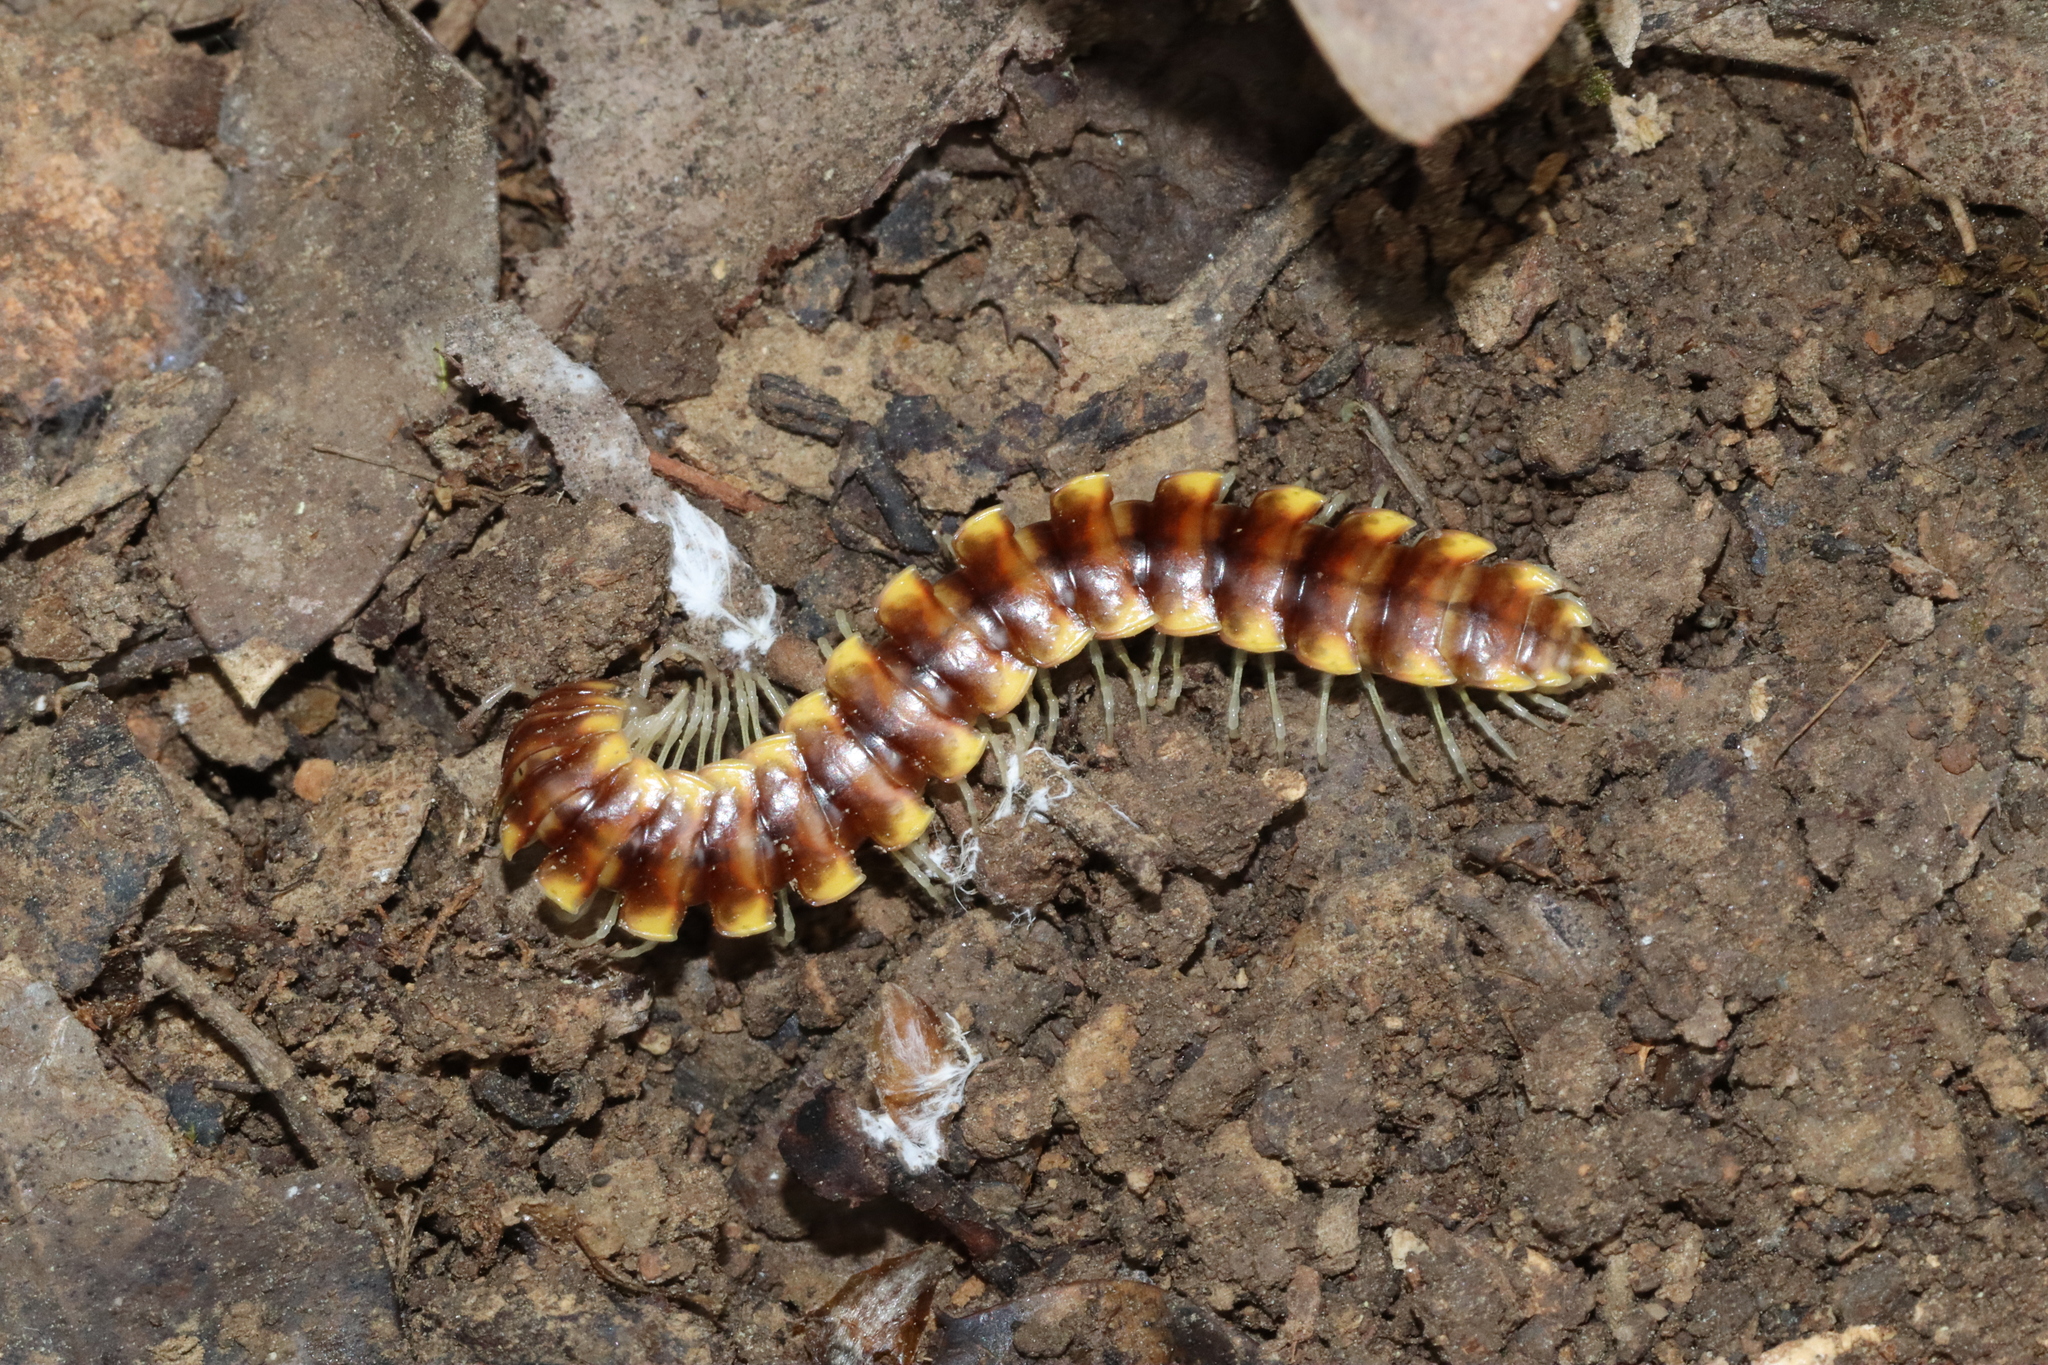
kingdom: Animalia
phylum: Arthropoda
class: Diplopoda
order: Polydesmida
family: Xystodesmidae
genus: Melaphe
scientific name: Melaphe vestita
